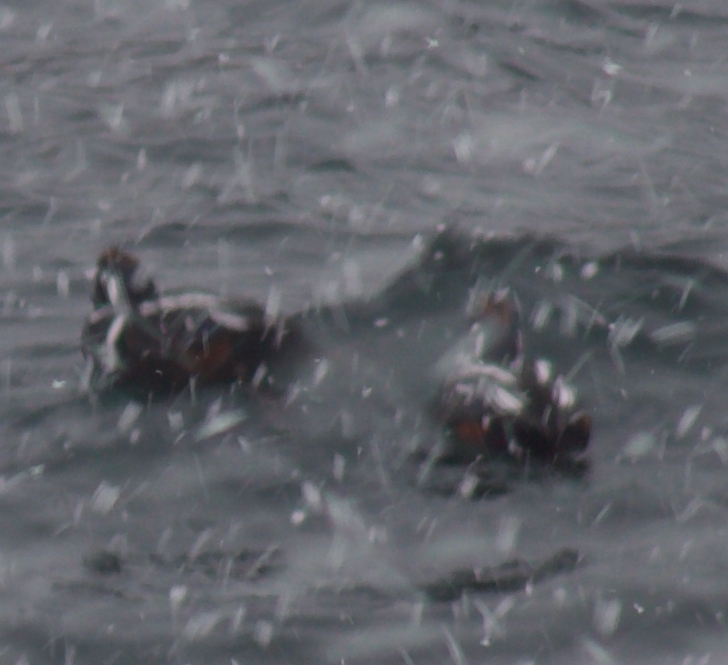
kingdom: Animalia
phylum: Chordata
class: Aves
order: Anseriformes
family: Anatidae
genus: Histrionicus
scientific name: Histrionicus histrionicus
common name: Harlequin duck
